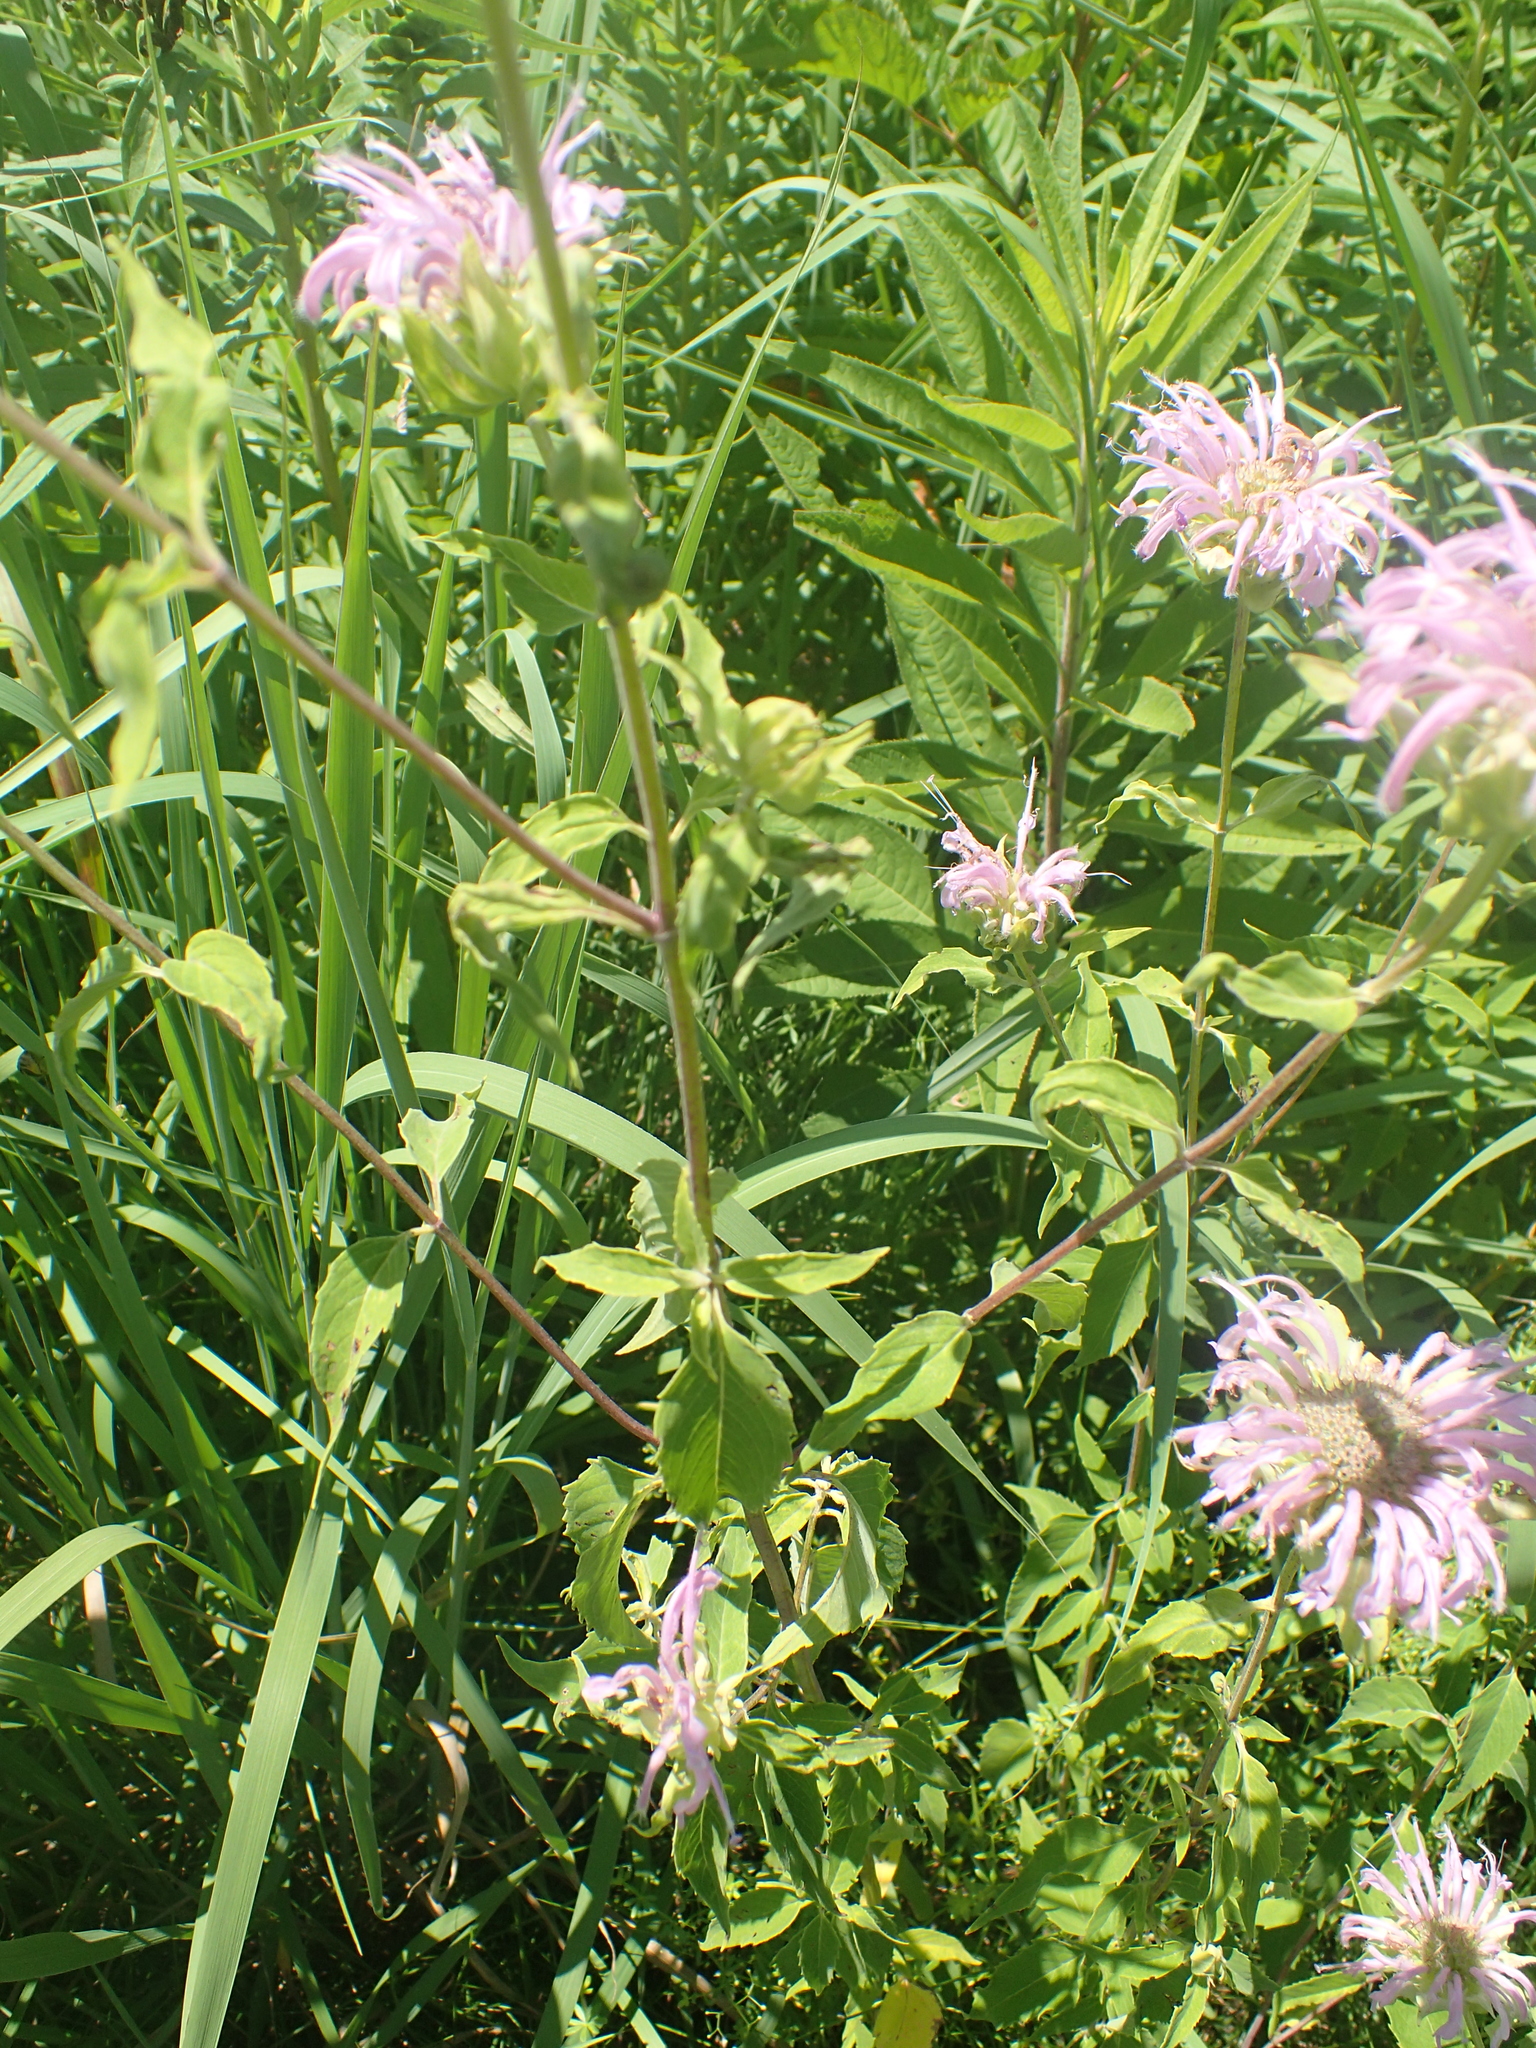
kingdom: Plantae
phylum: Tracheophyta
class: Magnoliopsida
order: Lamiales
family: Lamiaceae
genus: Monarda
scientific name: Monarda fistulosa
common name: Purple beebalm
